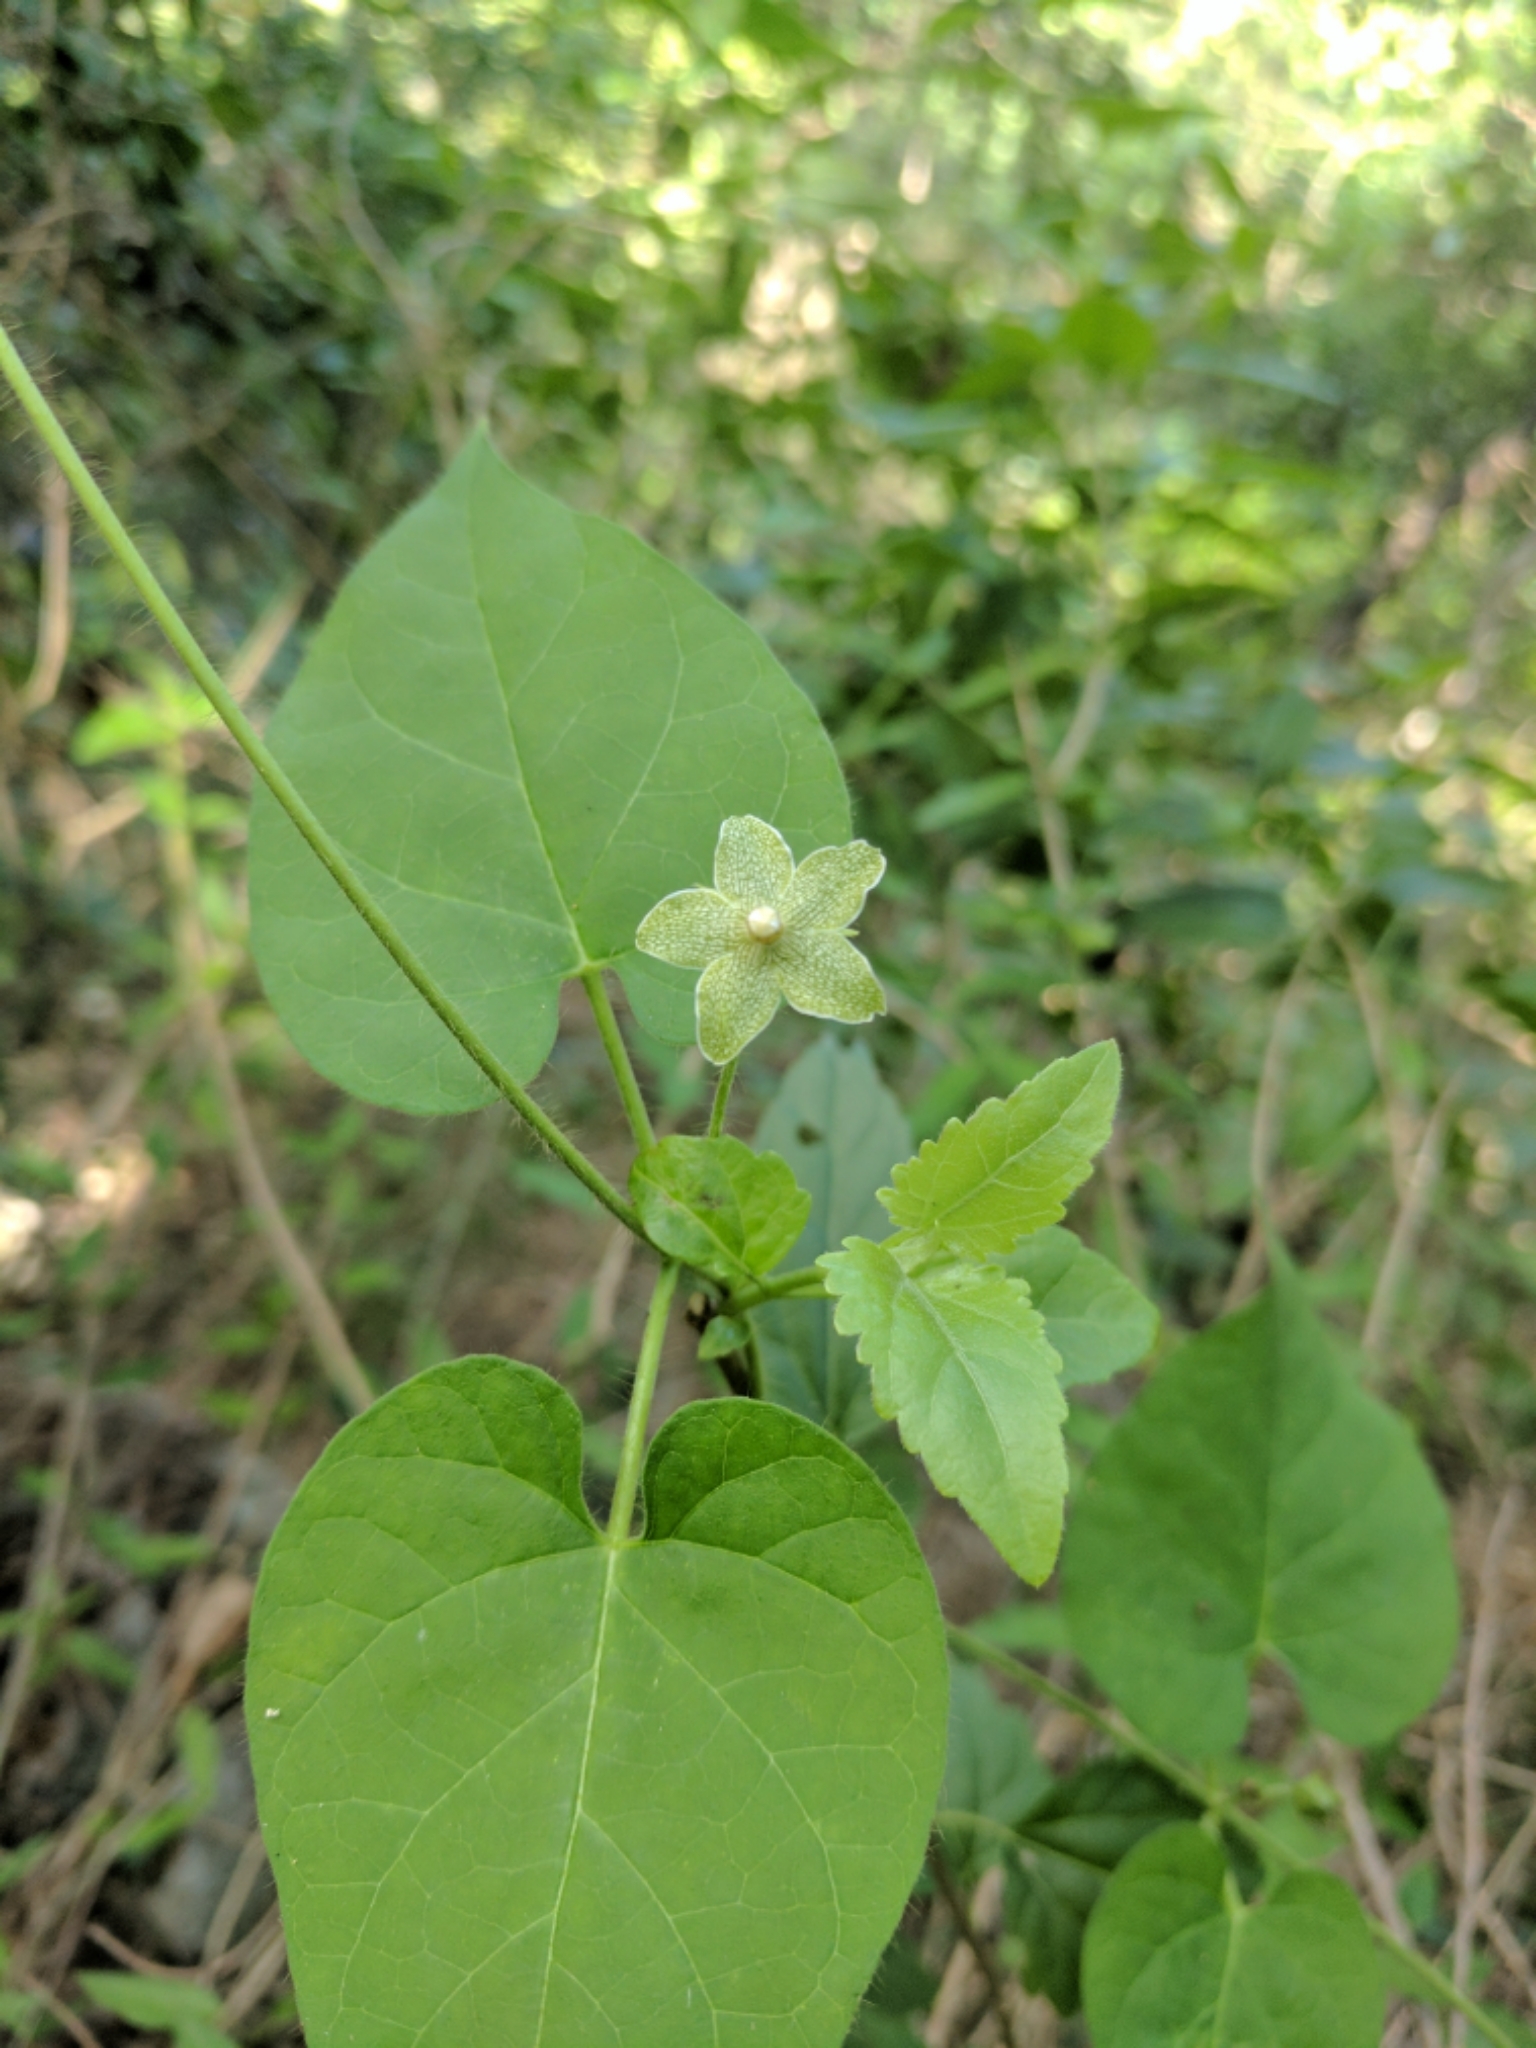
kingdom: Plantae
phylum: Tracheophyta
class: Magnoliopsida
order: Gentianales
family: Apocynaceae
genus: Dictyanthus
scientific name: Dictyanthus reticulatus
